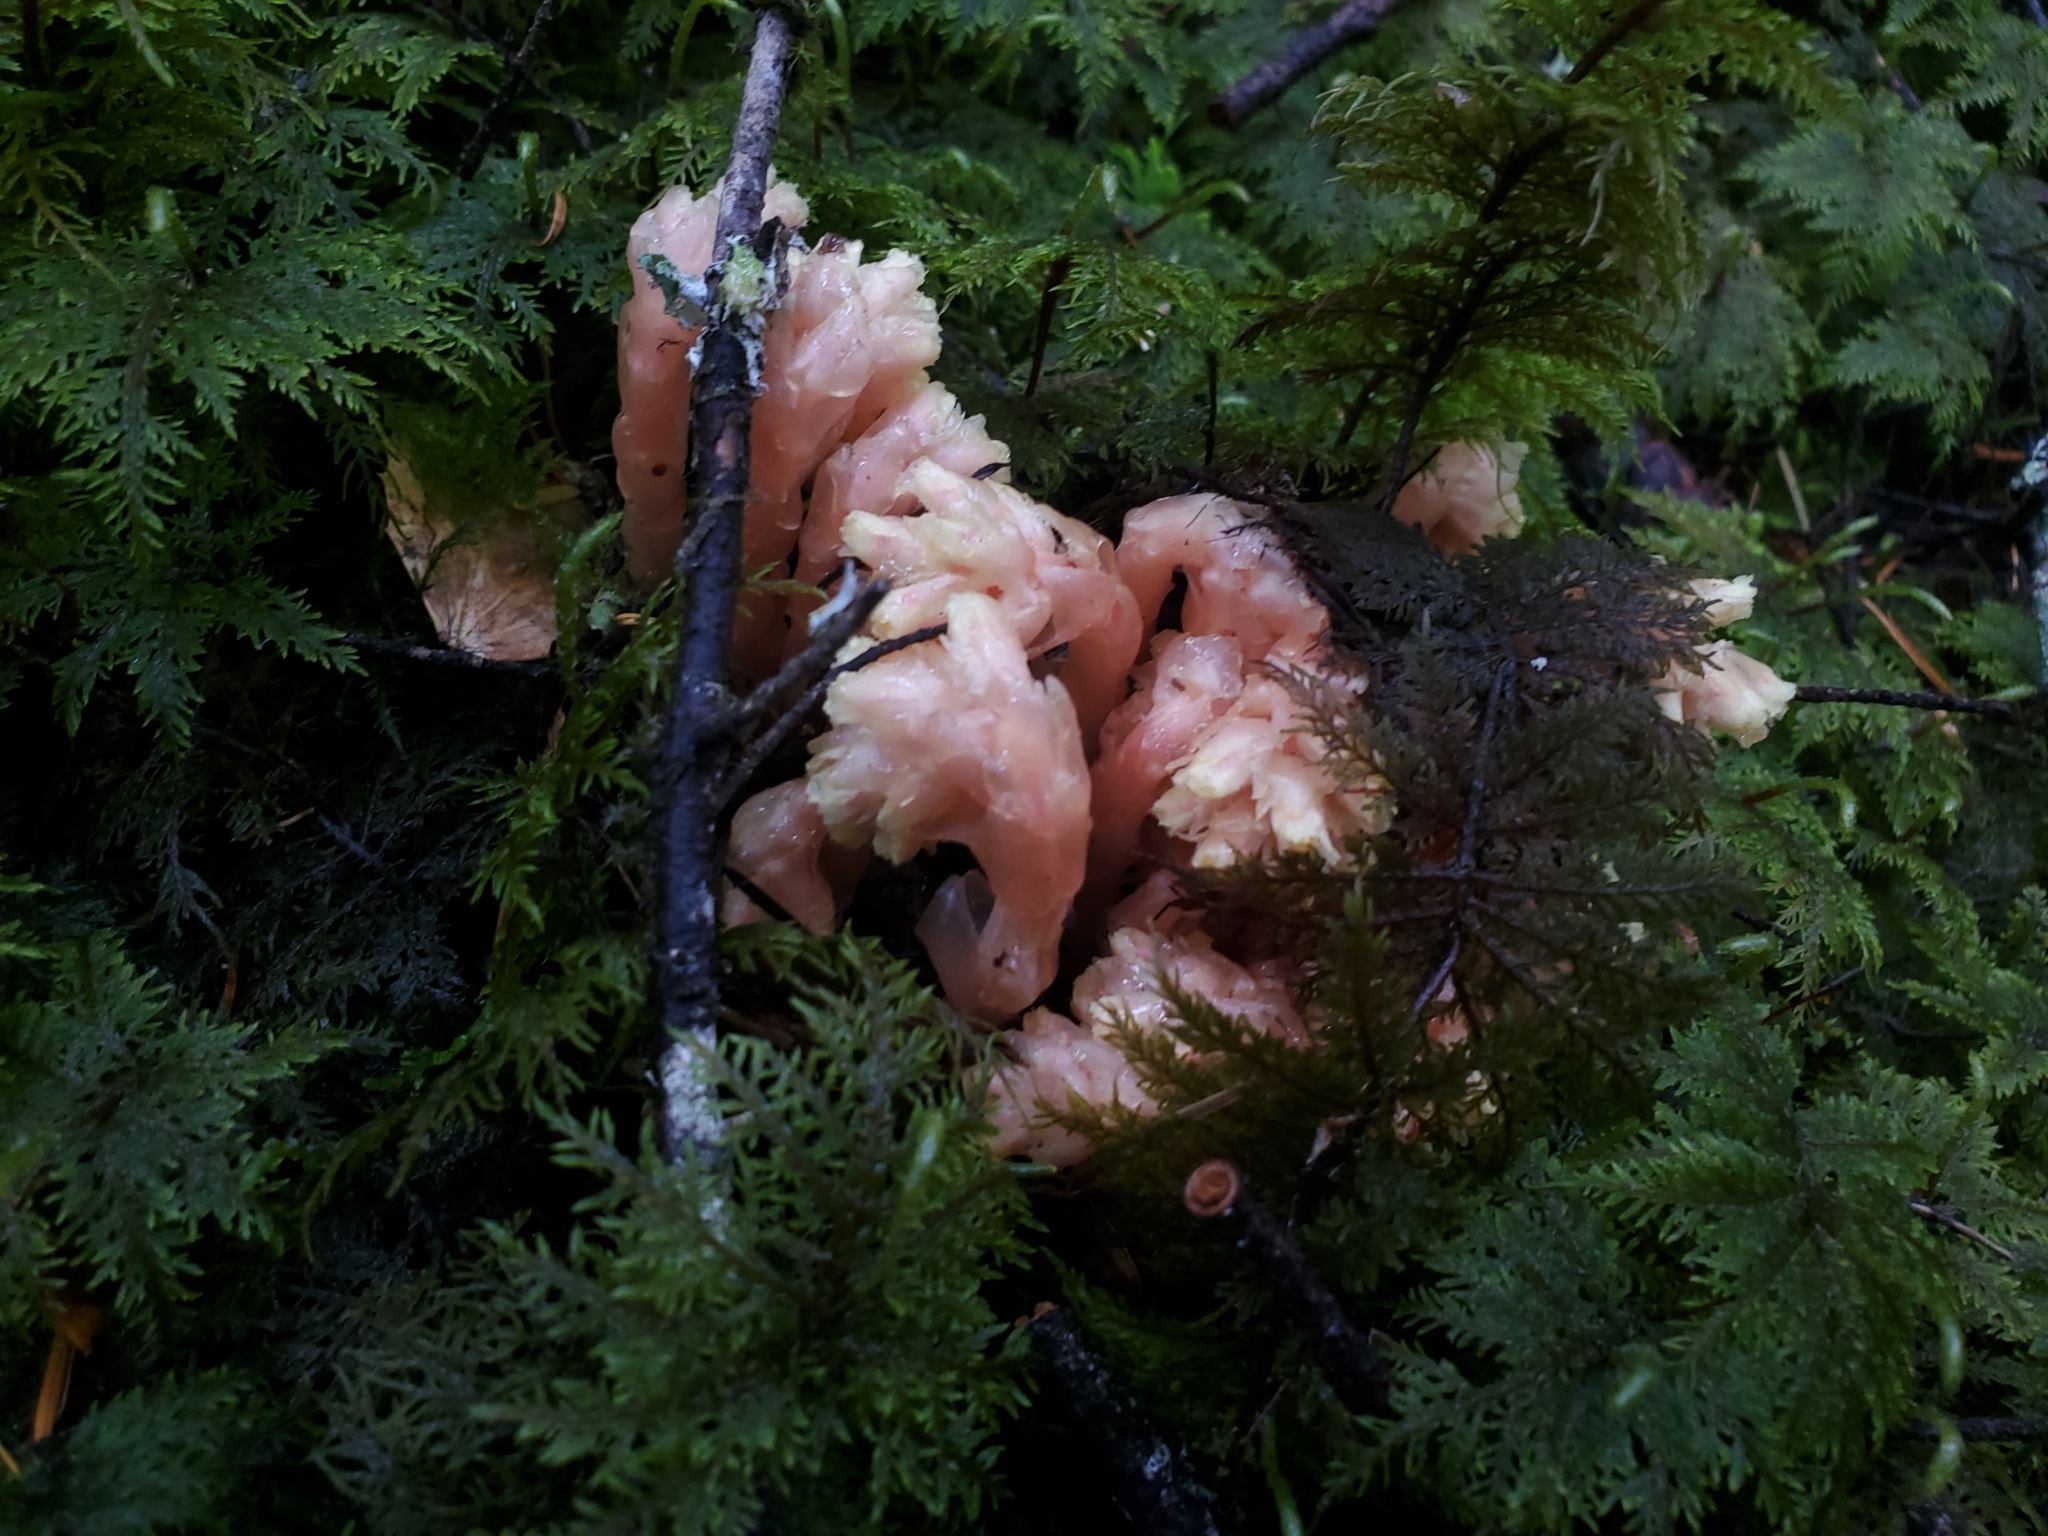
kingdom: Plantae
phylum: Tracheophyta
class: Magnoliopsida
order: Ericales
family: Ericaceae
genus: Hypopitys
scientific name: Hypopitys monotropa
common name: Yellow bird's-nest
